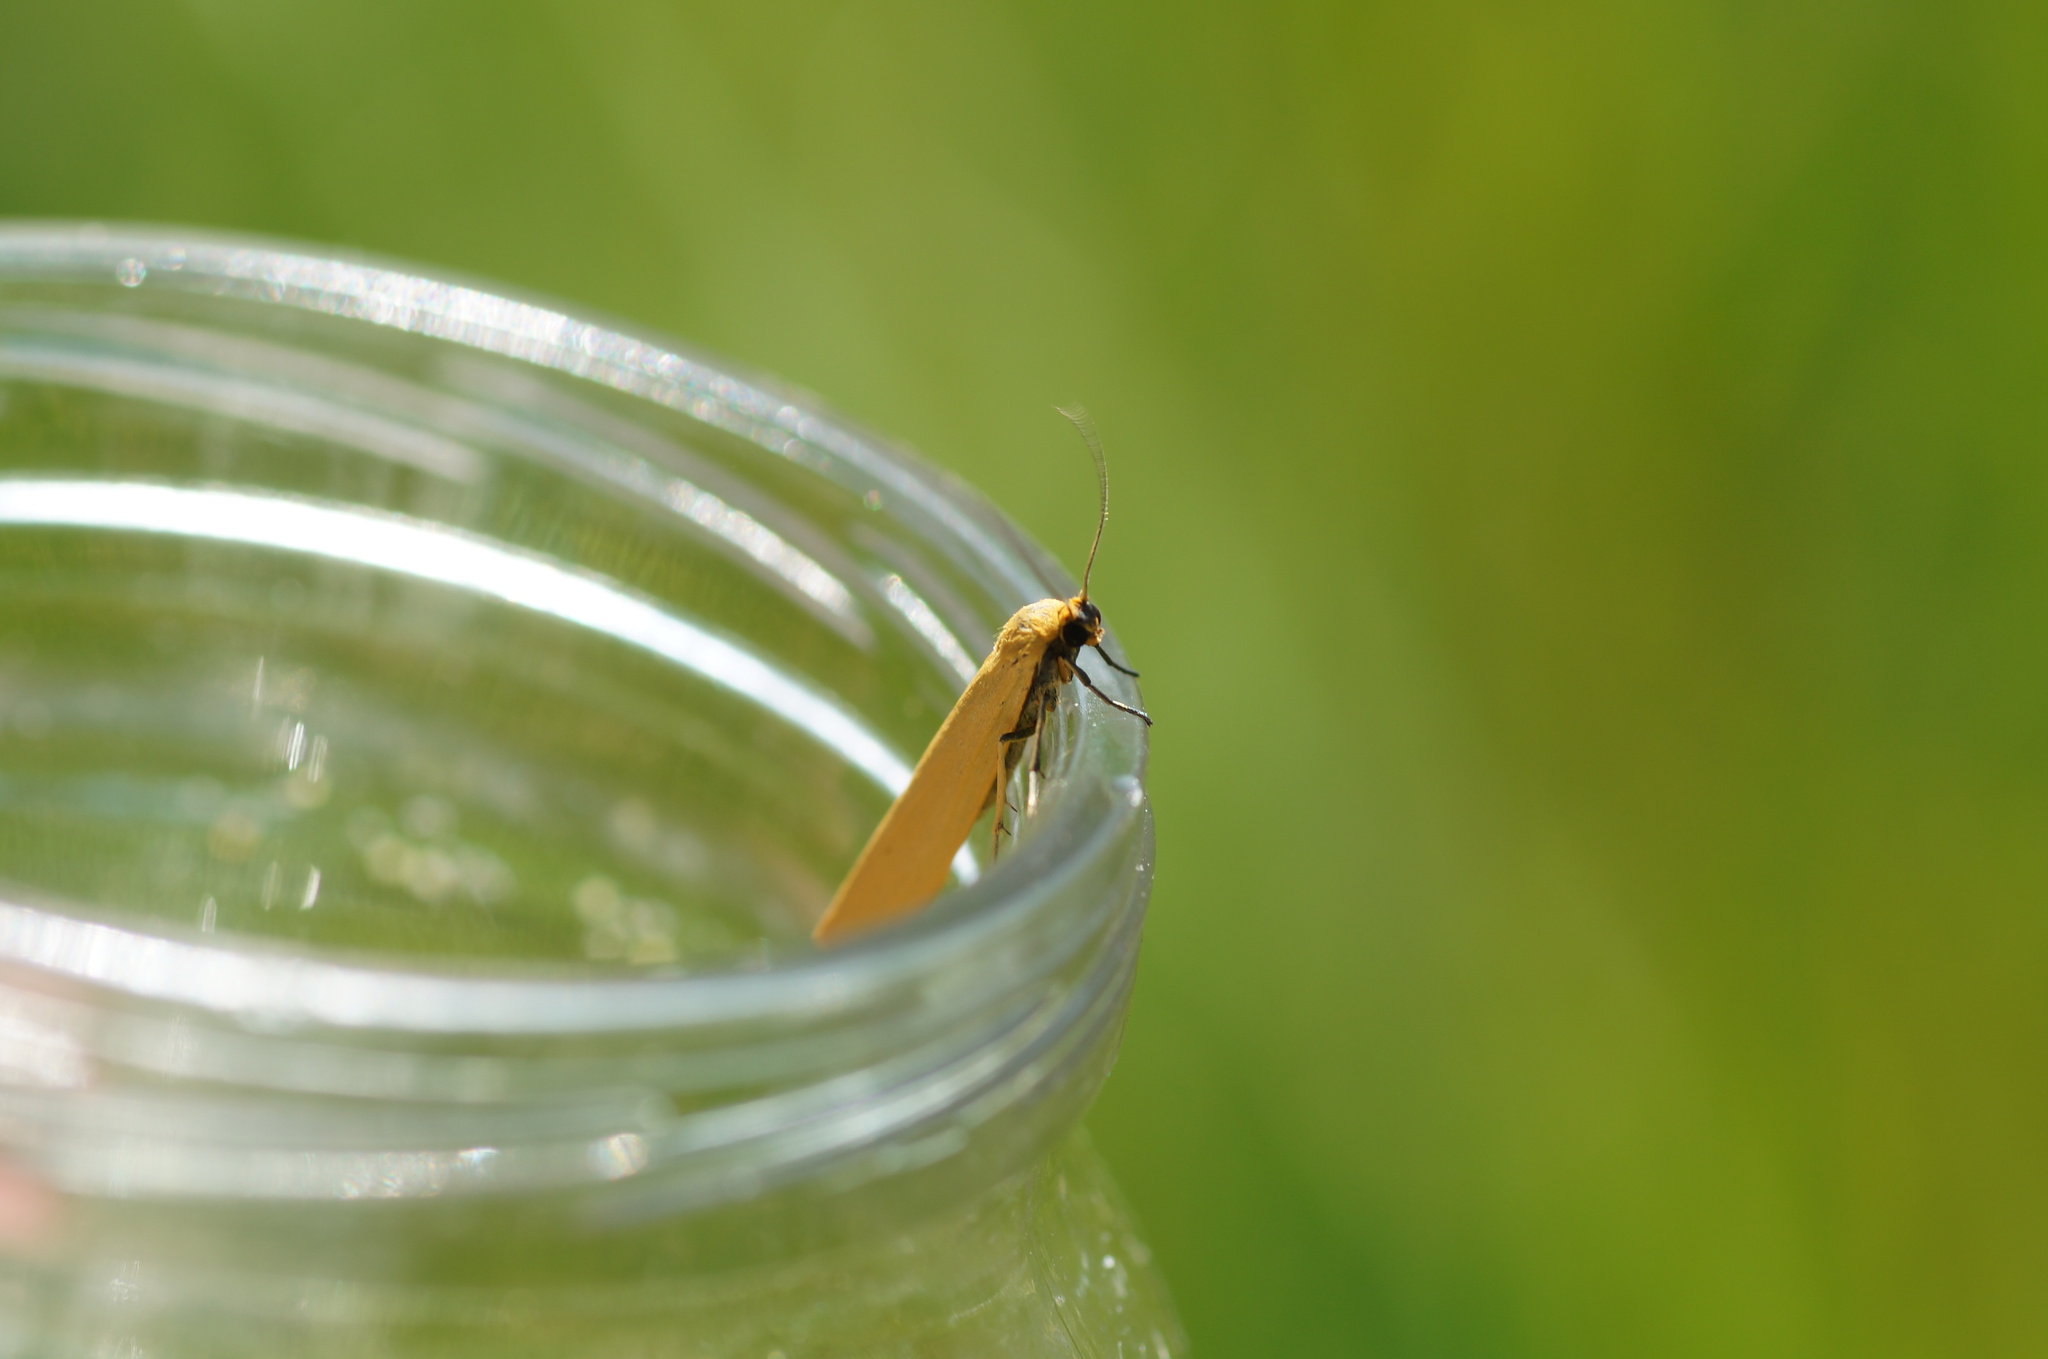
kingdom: Animalia
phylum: Arthropoda
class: Insecta
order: Lepidoptera
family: Erebidae
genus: Indalia
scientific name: Indalia lutarella
